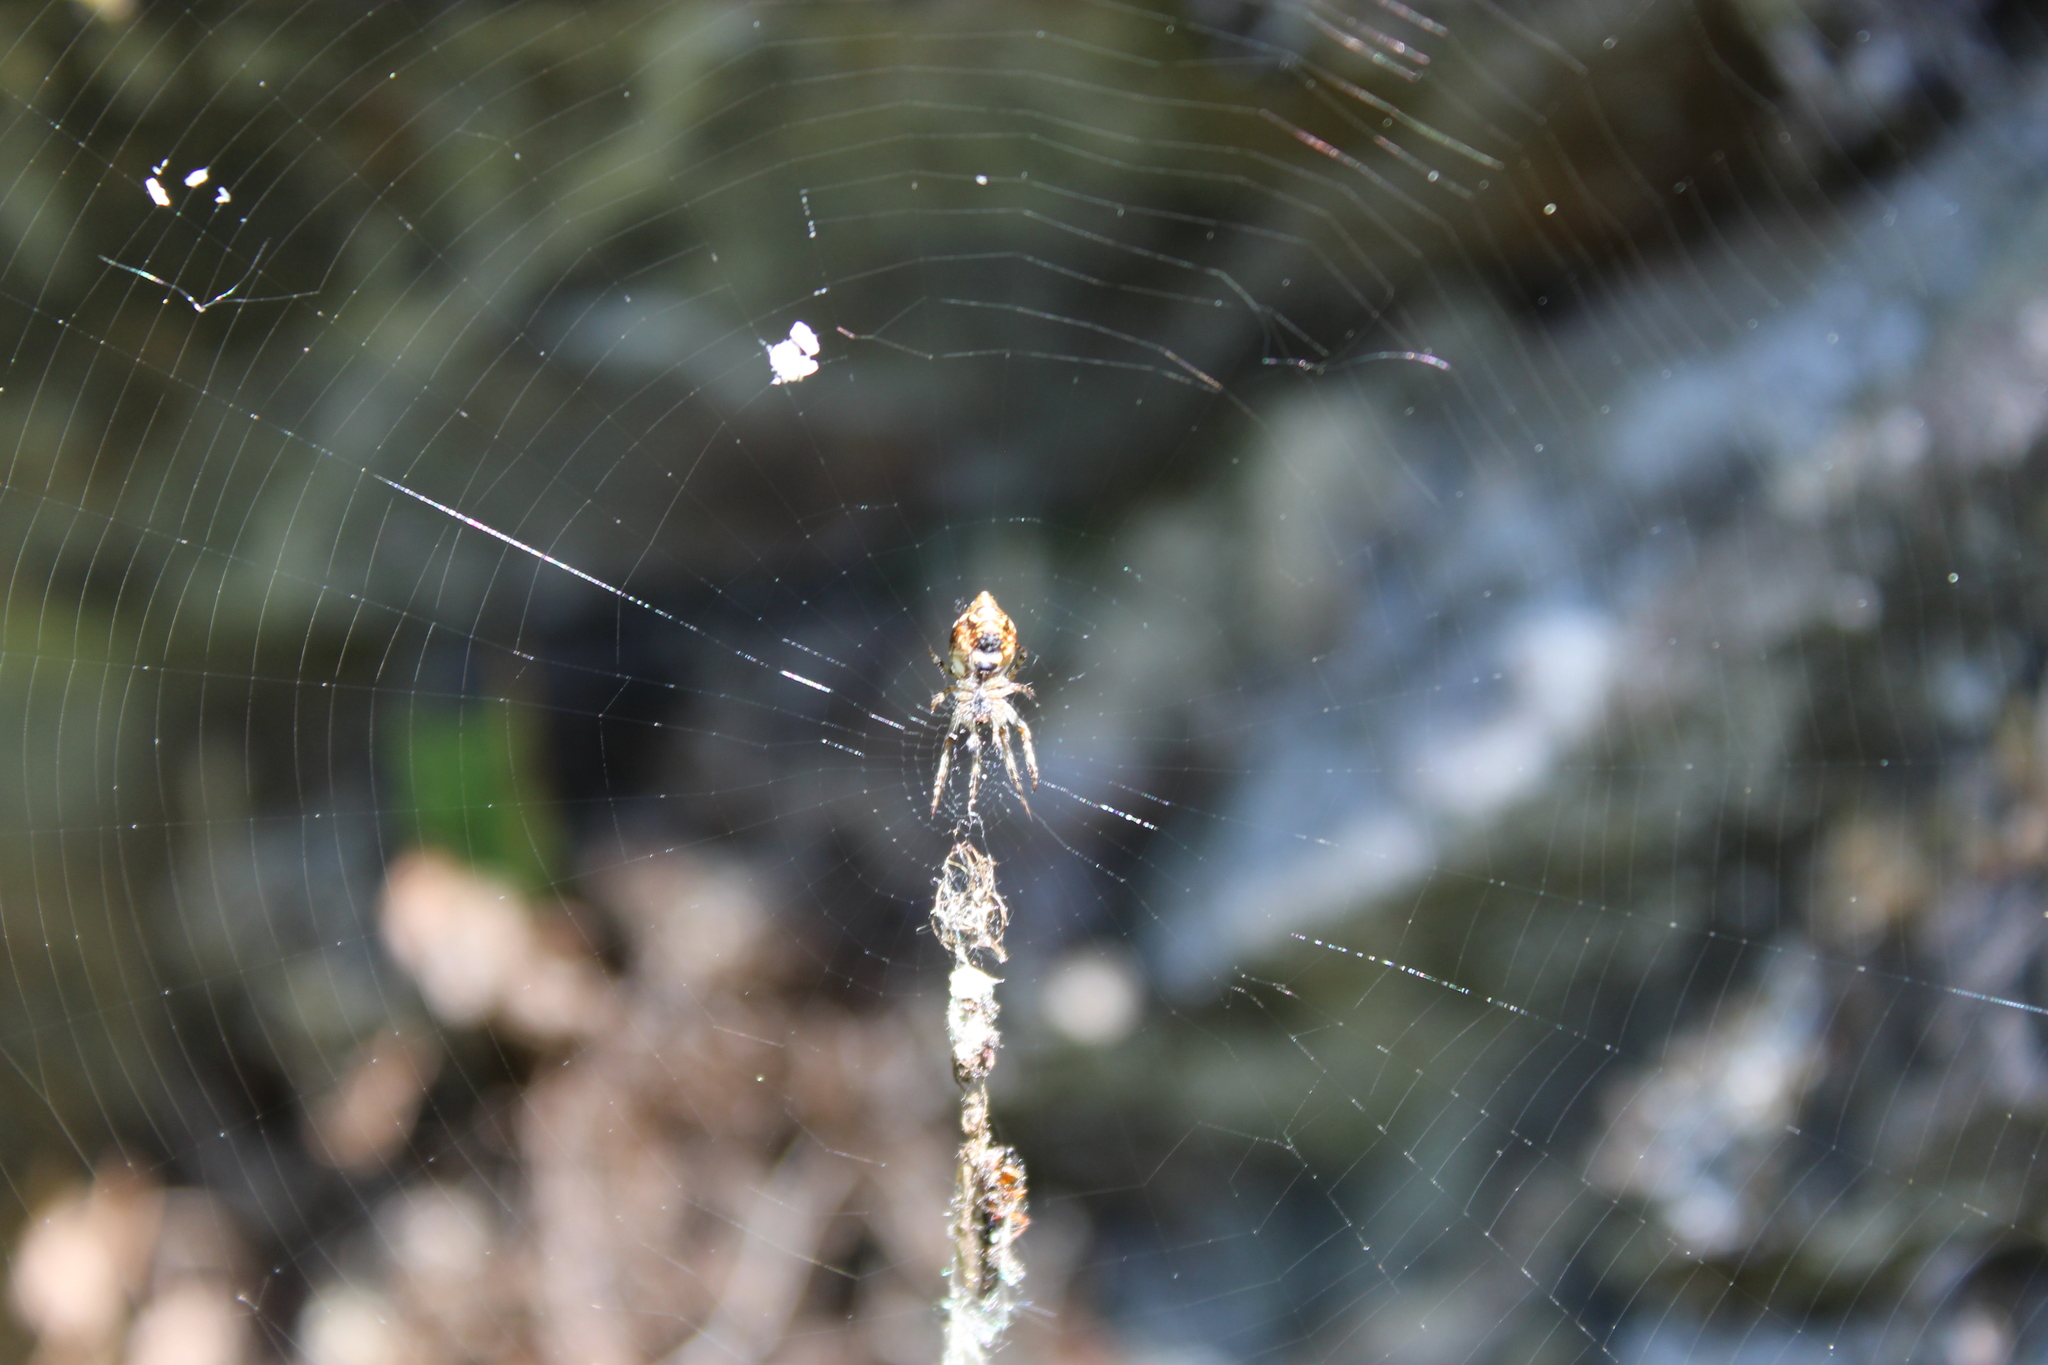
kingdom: Animalia
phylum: Arthropoda
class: Arachnida
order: Araneae
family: Araneidae
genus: Cyclosa
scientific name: Cyclosa conica
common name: Conical trashline orbweaver
